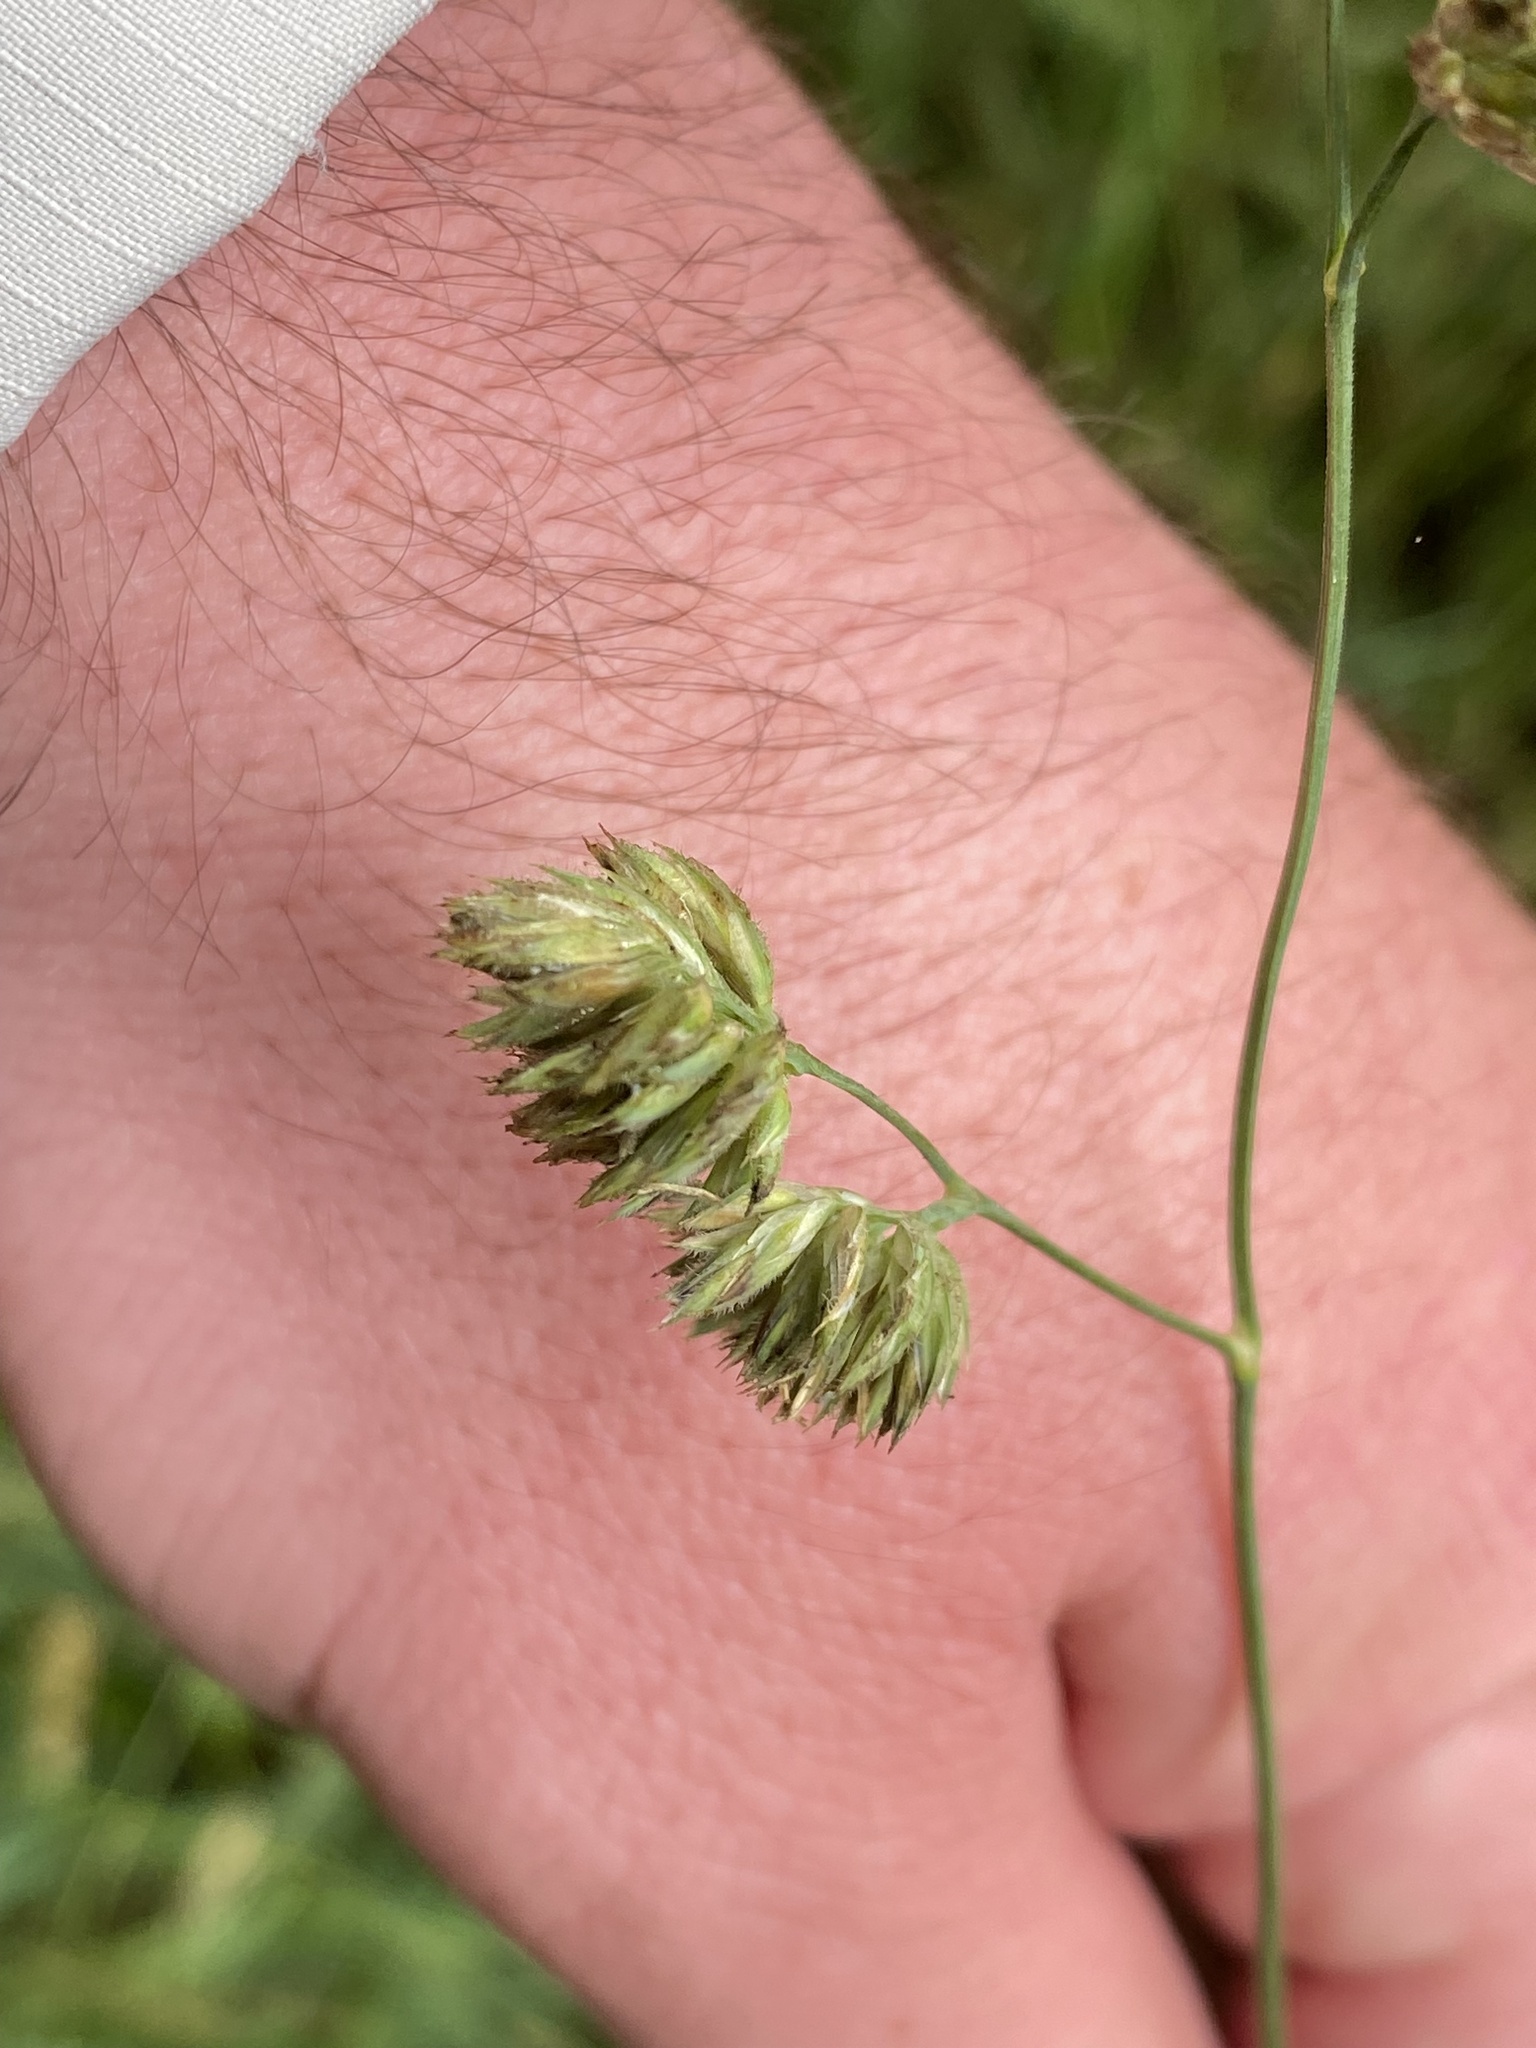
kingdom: Plantae
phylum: Tracheophyta
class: Liliopsida
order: Poales
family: Poaceae
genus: Dactylis
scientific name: Dactylis glomerata
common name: Orchardgrass
